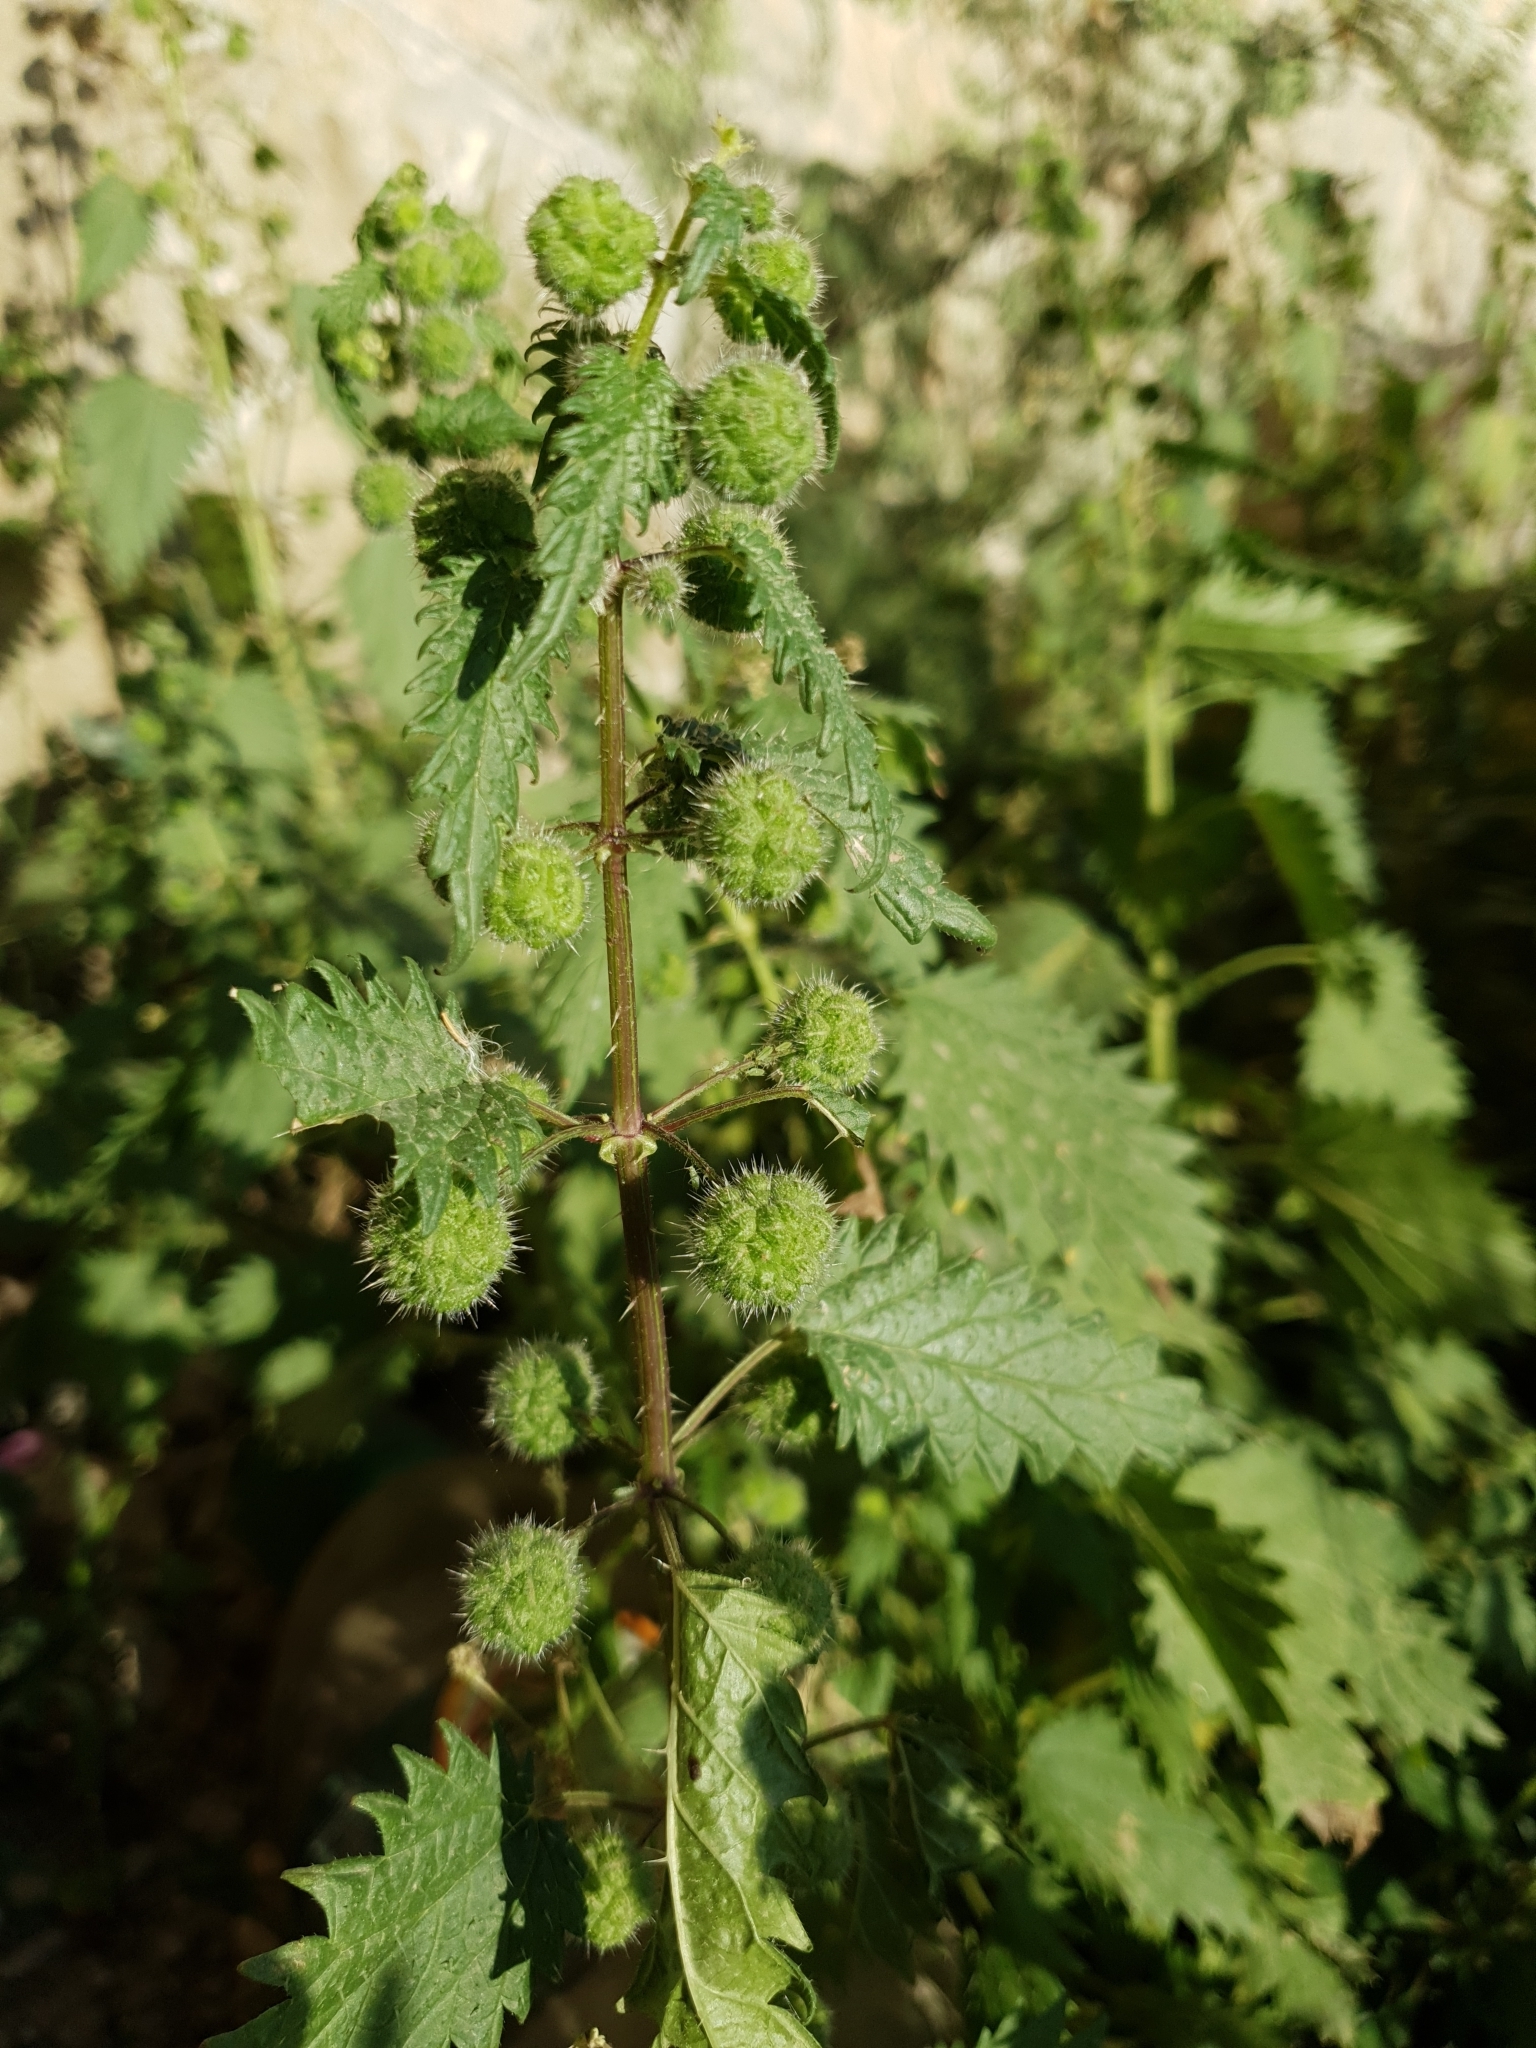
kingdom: Plantae
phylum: Tracheophyta
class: Magnoliopsida
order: Rosales
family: Urticaceae
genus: Urtica
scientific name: Urtica pilulifera
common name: Roman nettle
